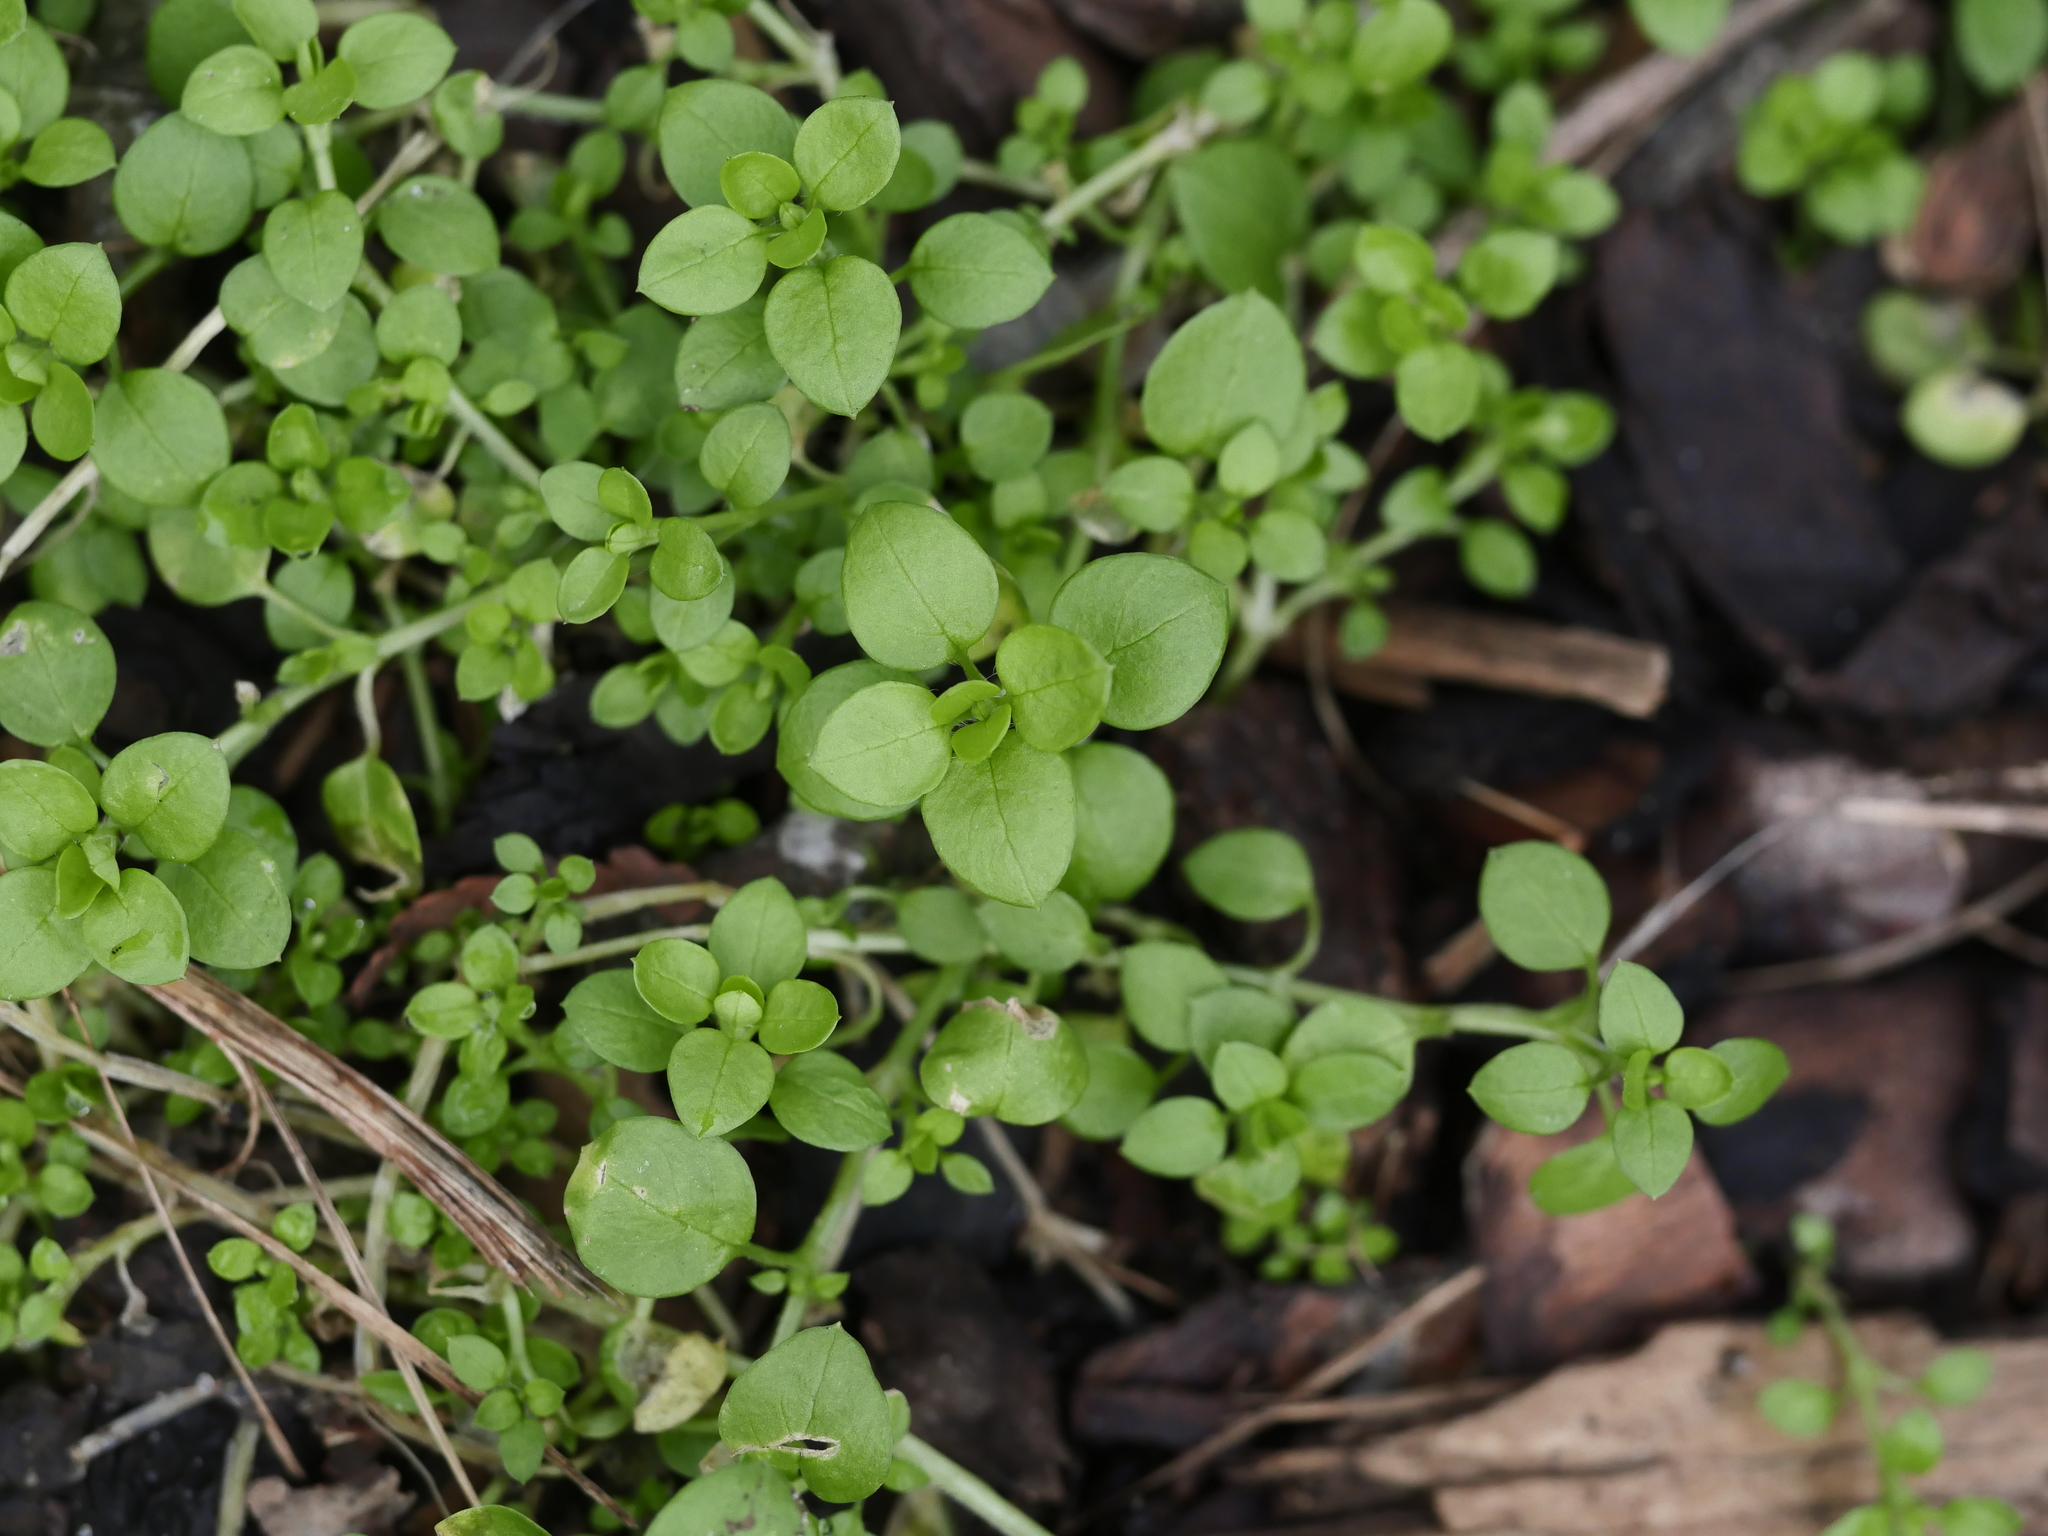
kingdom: Plantae
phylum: Tracheophyta
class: Magnoliopsida
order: Caryophyllales
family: Caryophyllaceae
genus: Stellaria
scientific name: Stellaria media
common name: Common chickweed
